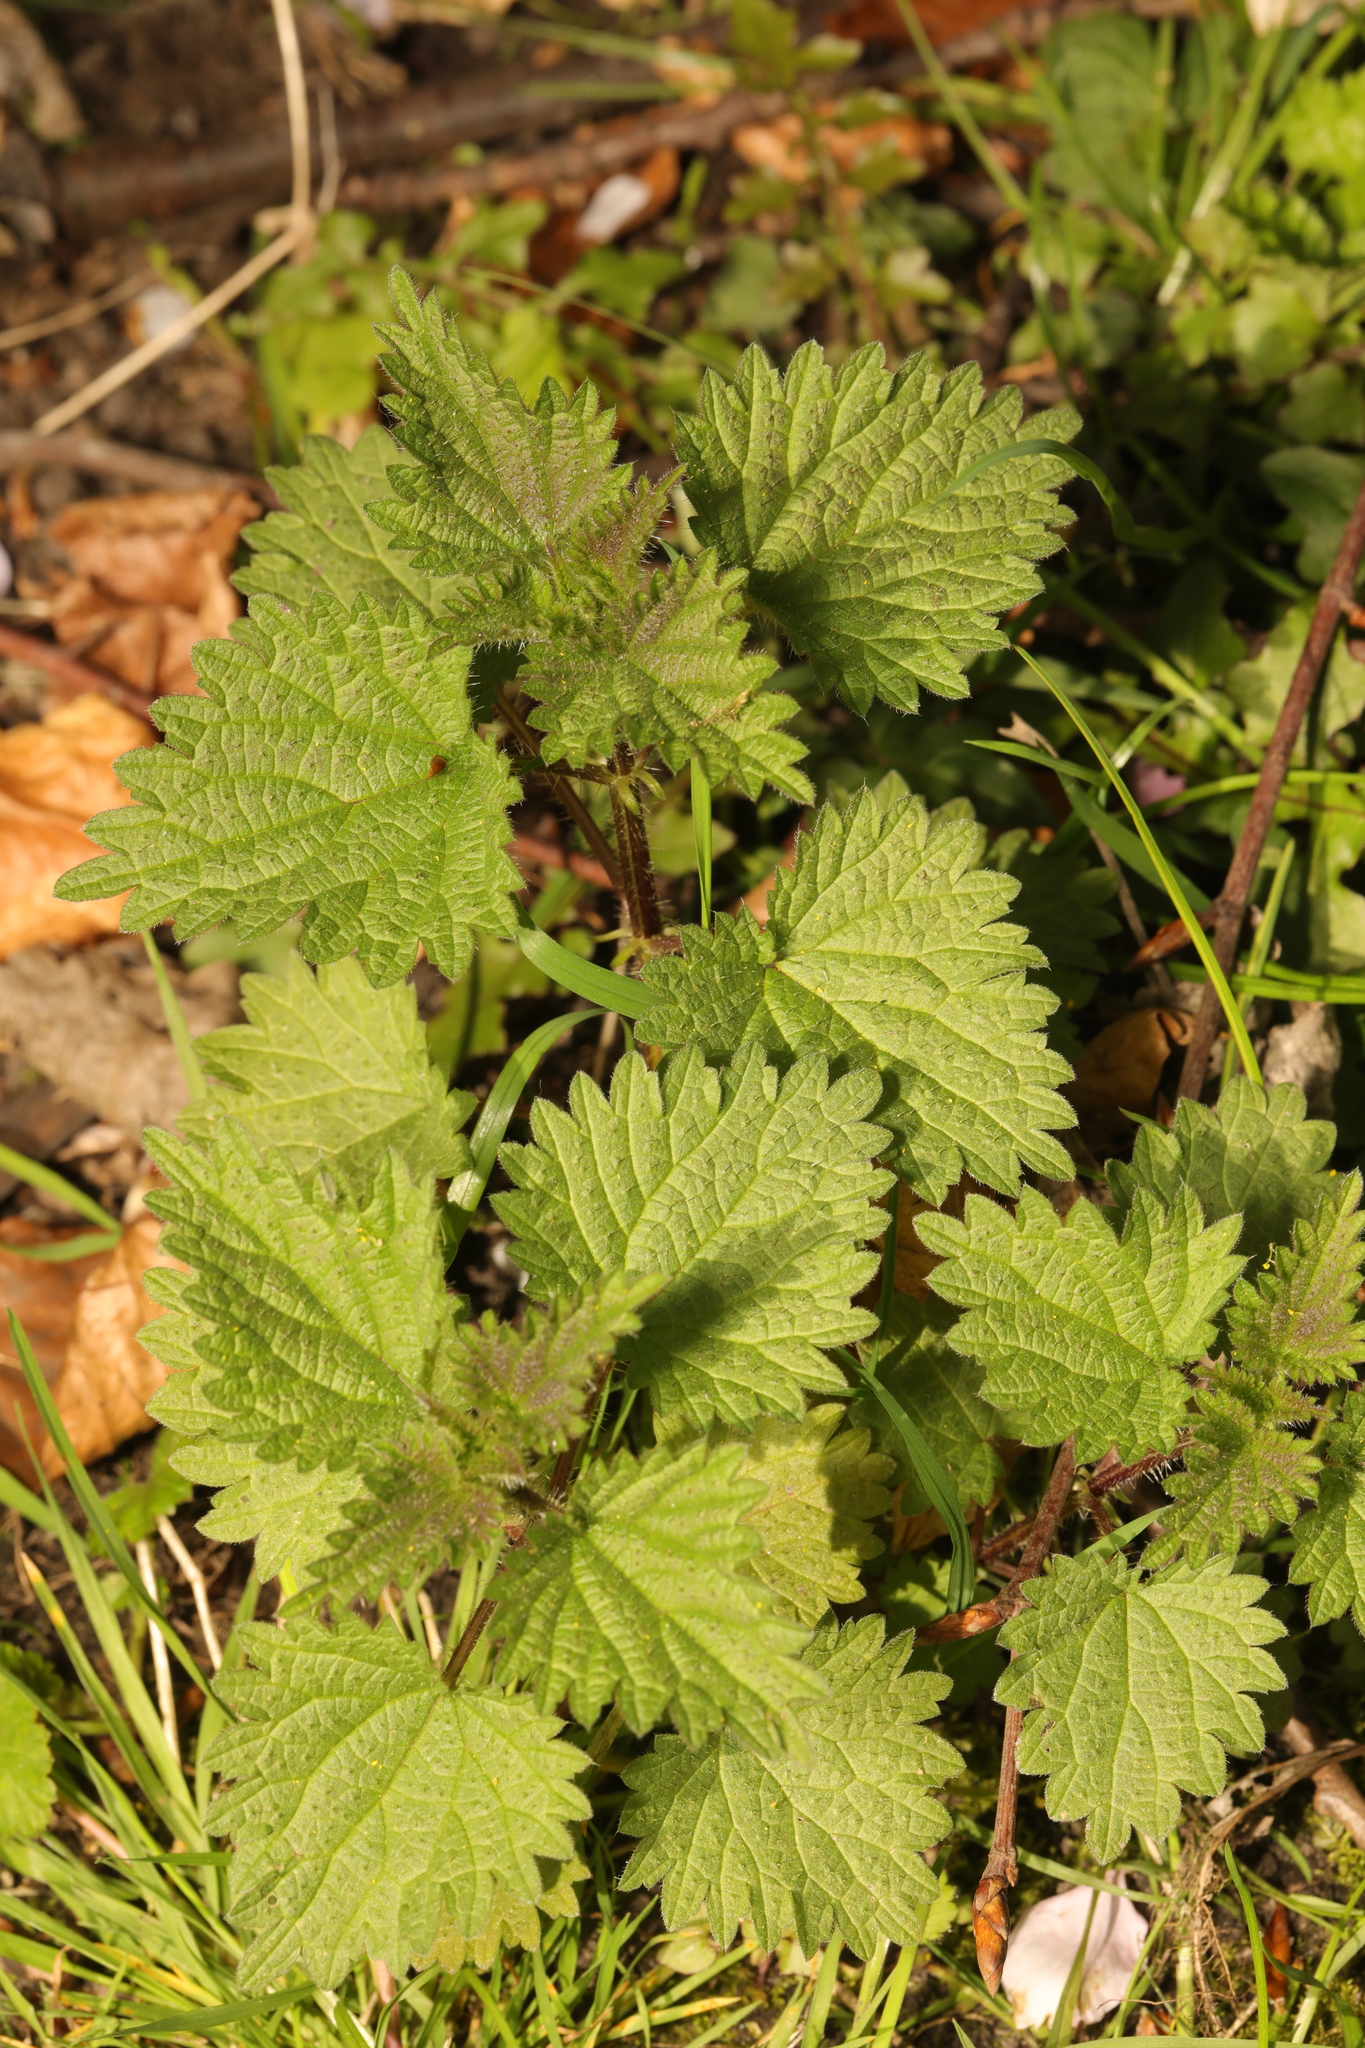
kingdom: Plantae
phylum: Tracheophyta
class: Magnoliopsida
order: Rosales
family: Urticaceae
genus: Urtica
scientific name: Urtica dioica
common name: Common nettle
